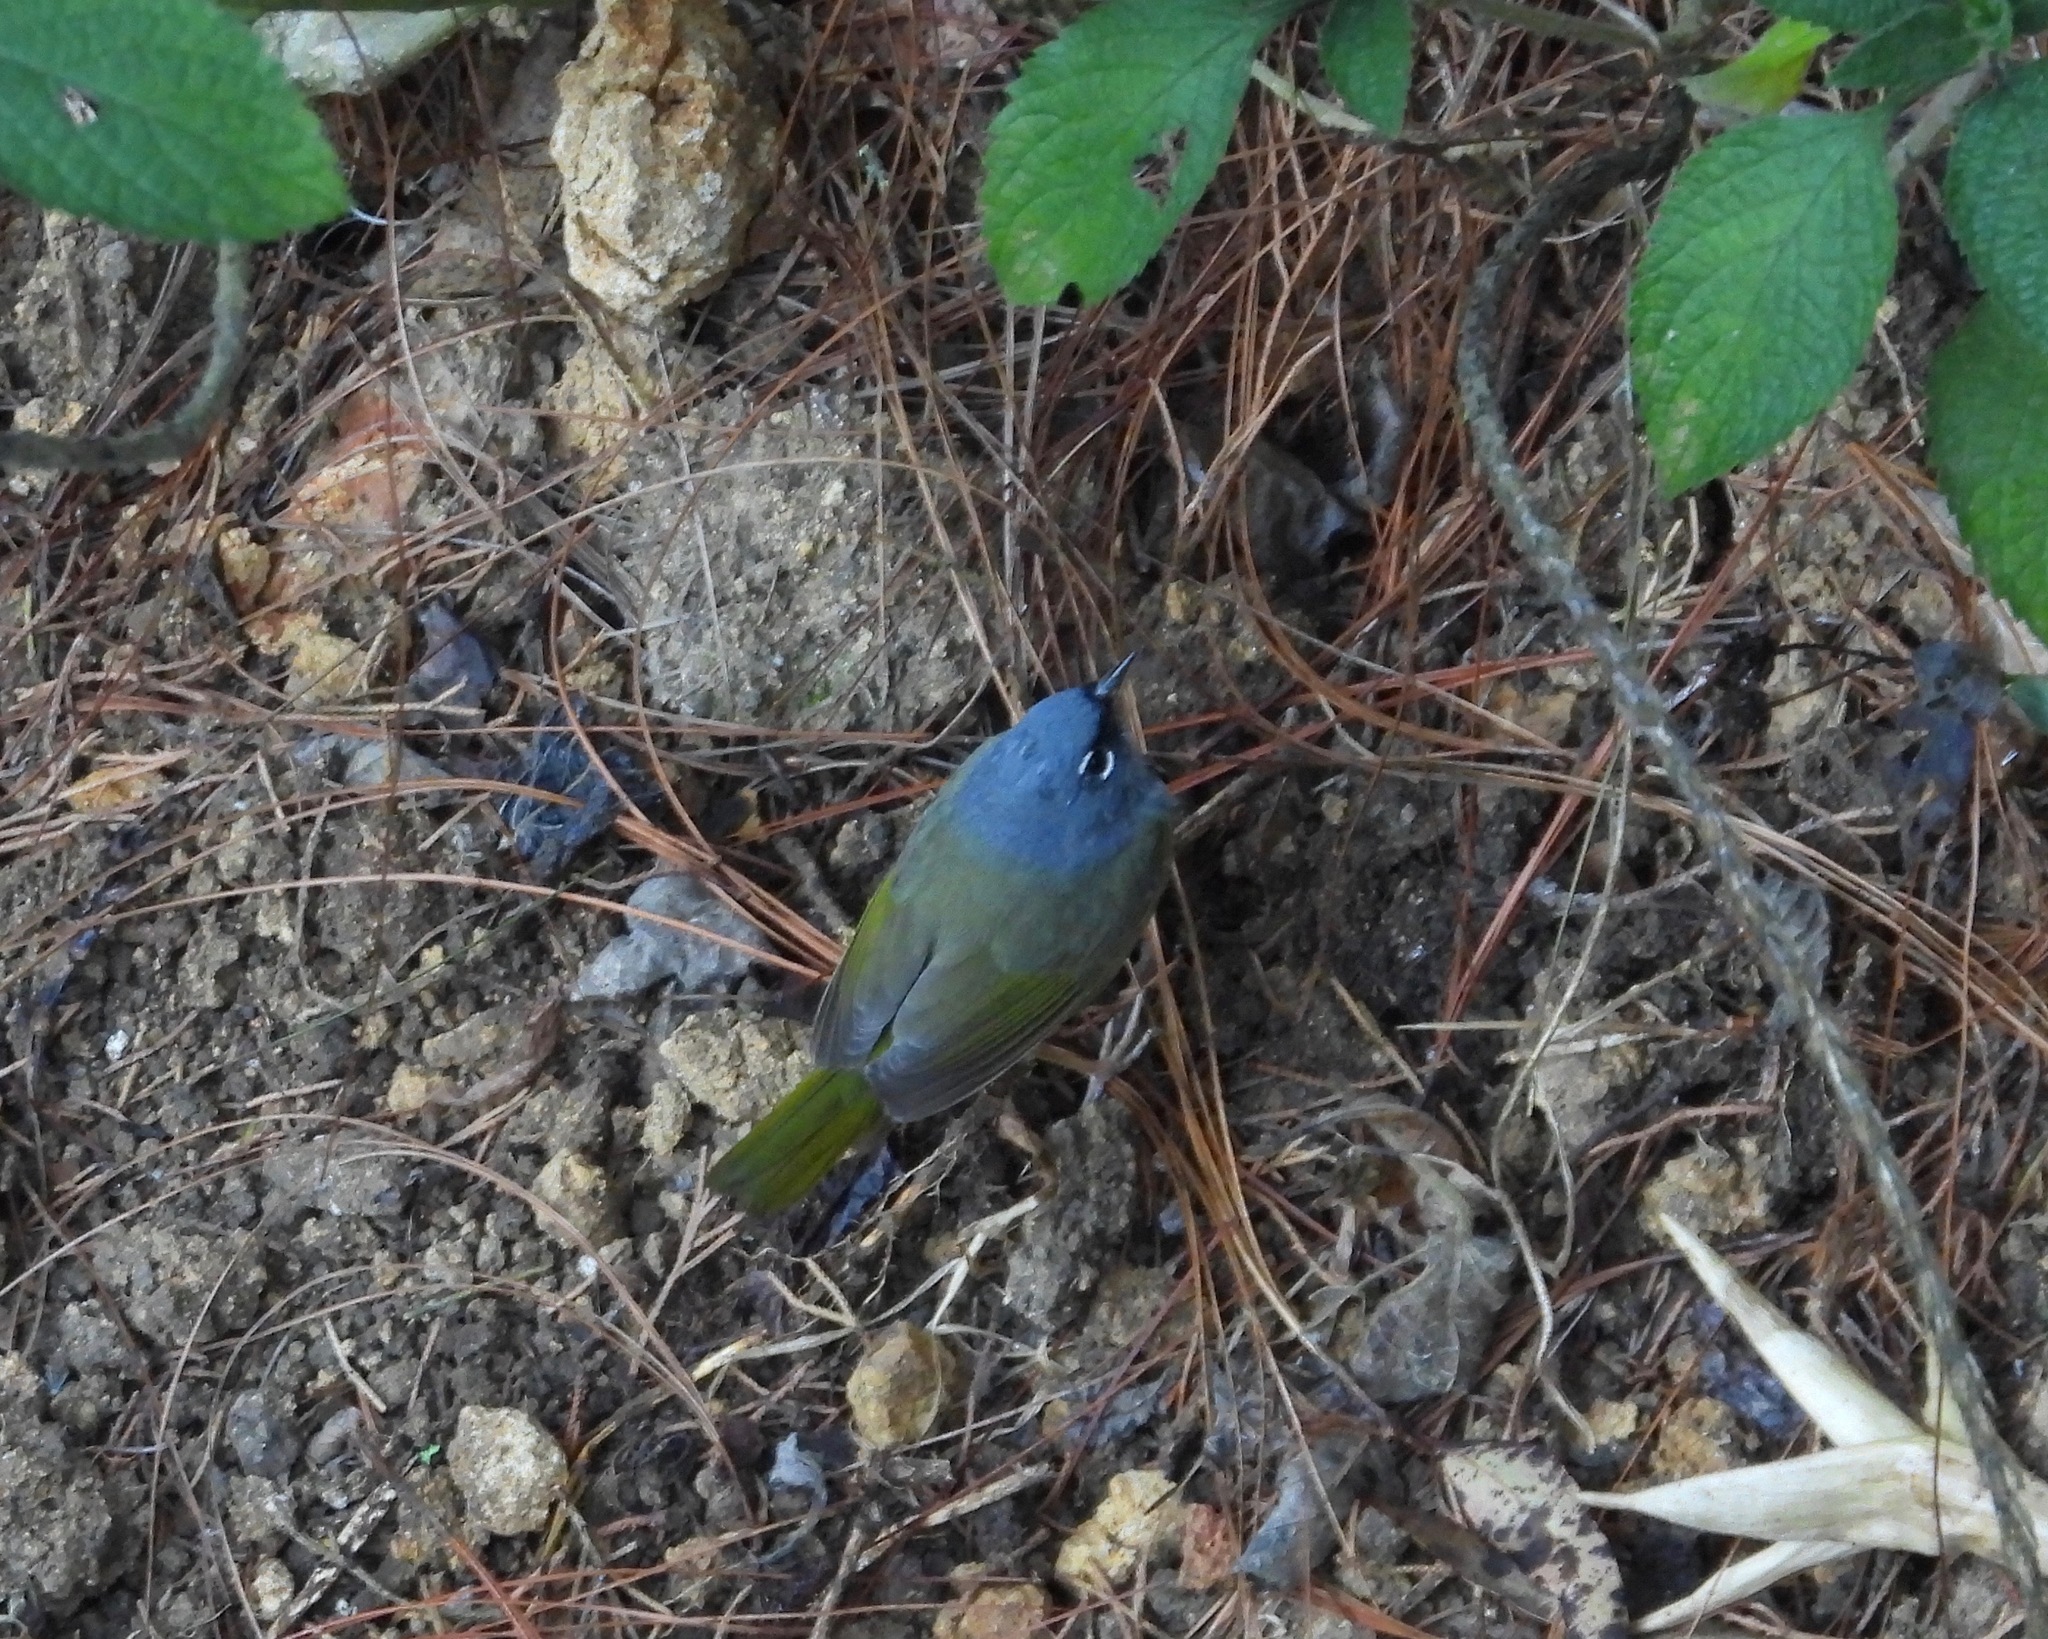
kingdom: Animalia
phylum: Chordata
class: Aves
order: Passeriformes
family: Parulidae
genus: Geothlypis
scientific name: Geothlypis tolmiei
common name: Macgillivray's warbler
